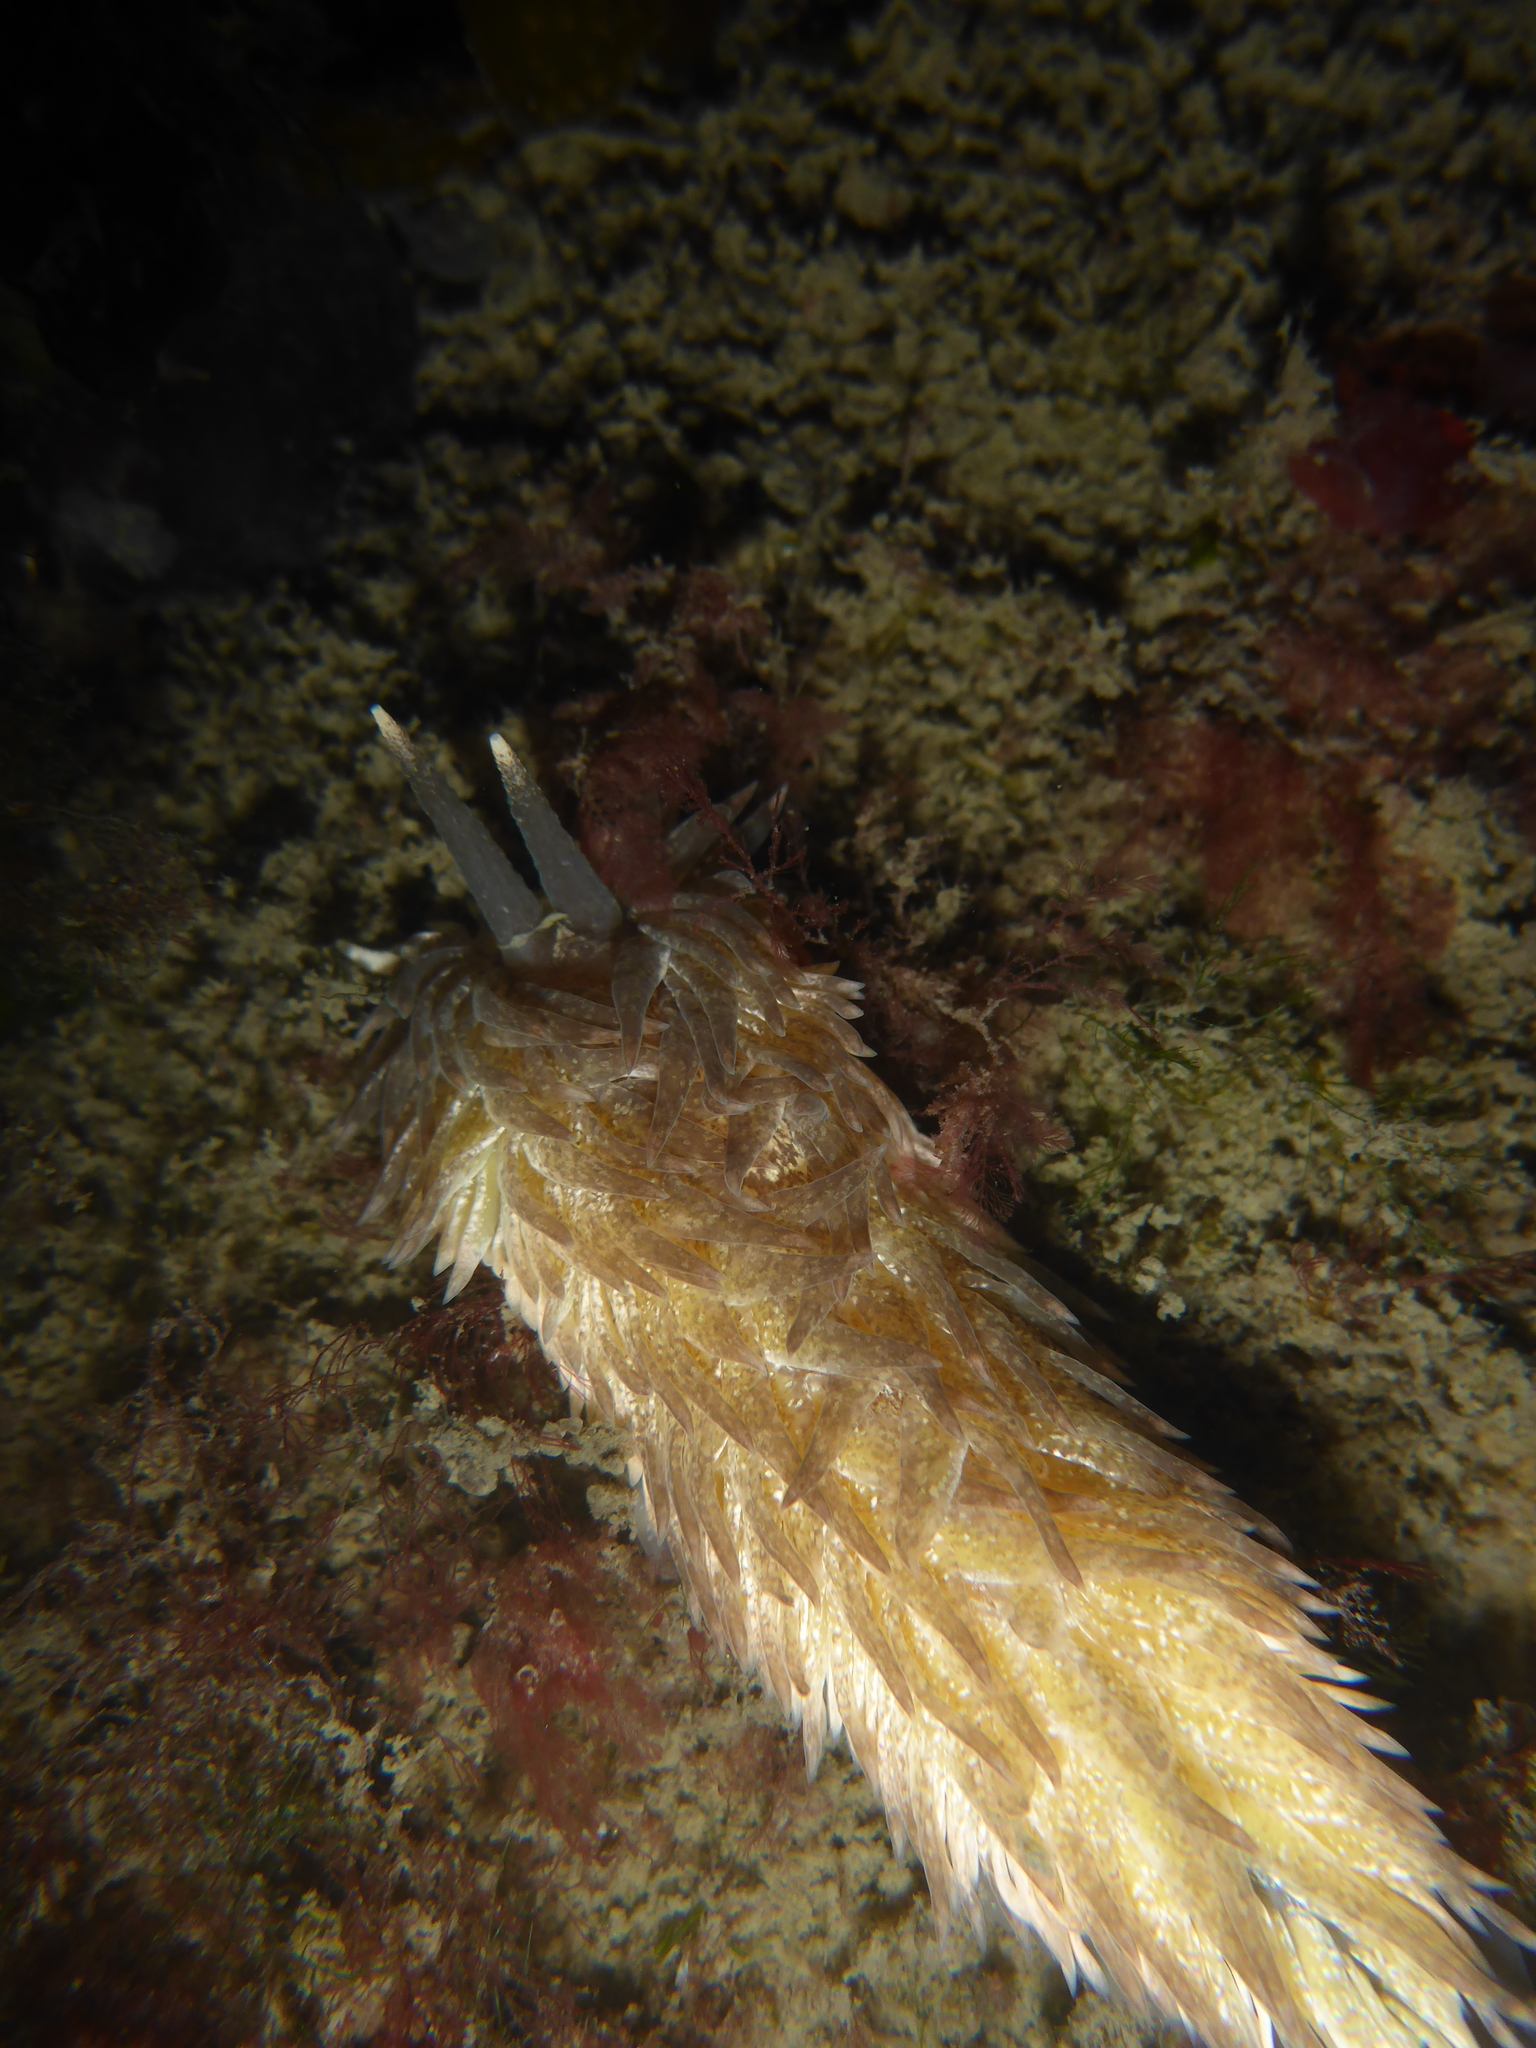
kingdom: Animalia
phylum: Mollusca
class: Gastropoda
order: Nudibranchia
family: Aeolidiidae
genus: Aeolidia
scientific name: Aeolidia loui
